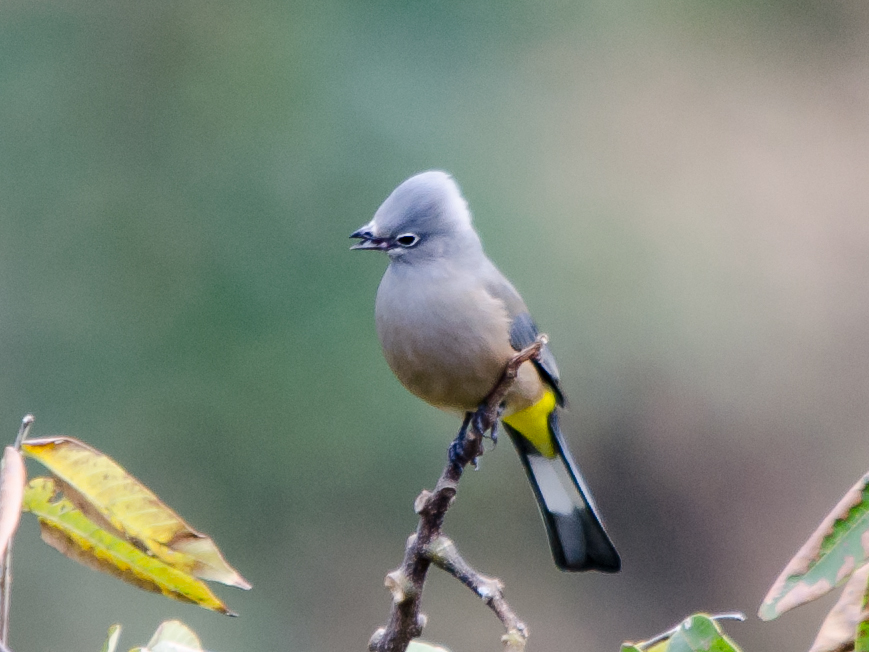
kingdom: Animalia
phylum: Chordata
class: Aves
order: Passeriformes
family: Ptilogonatidae
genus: Ptilogonys
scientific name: Ptilogonys cinereus
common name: Gray silky-flycatcher
